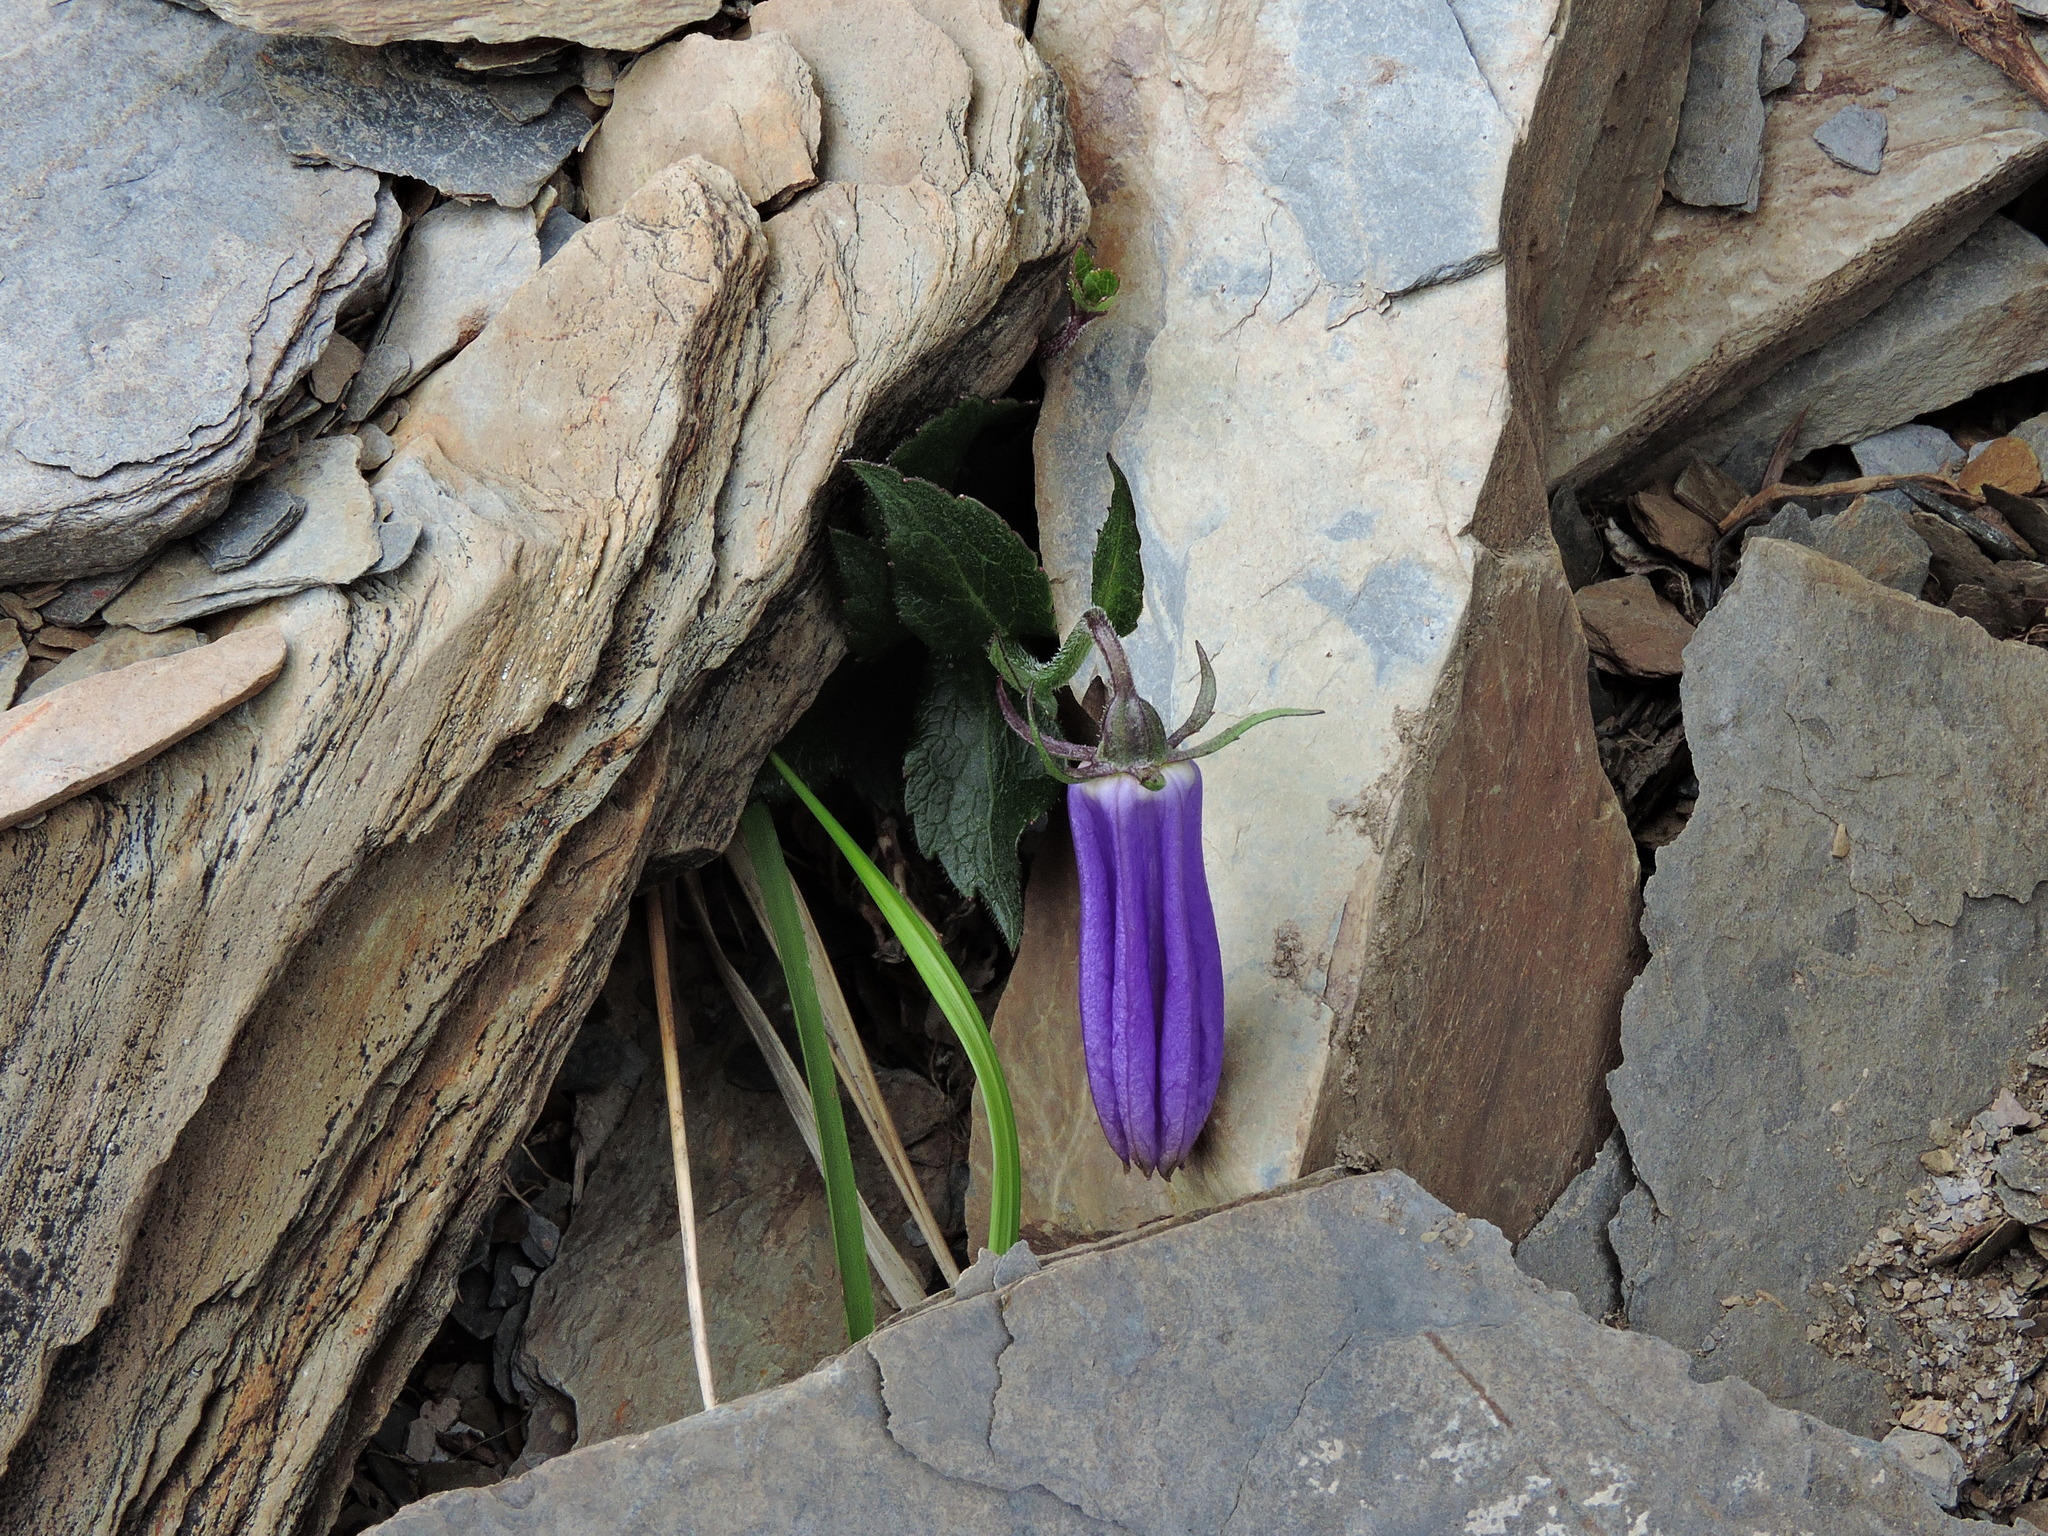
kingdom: Plantae
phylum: Tracheophyta
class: Magnoliopsida
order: Asterales
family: Campanulaceae
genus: Adenophora
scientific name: Adenophora morrisonensis
